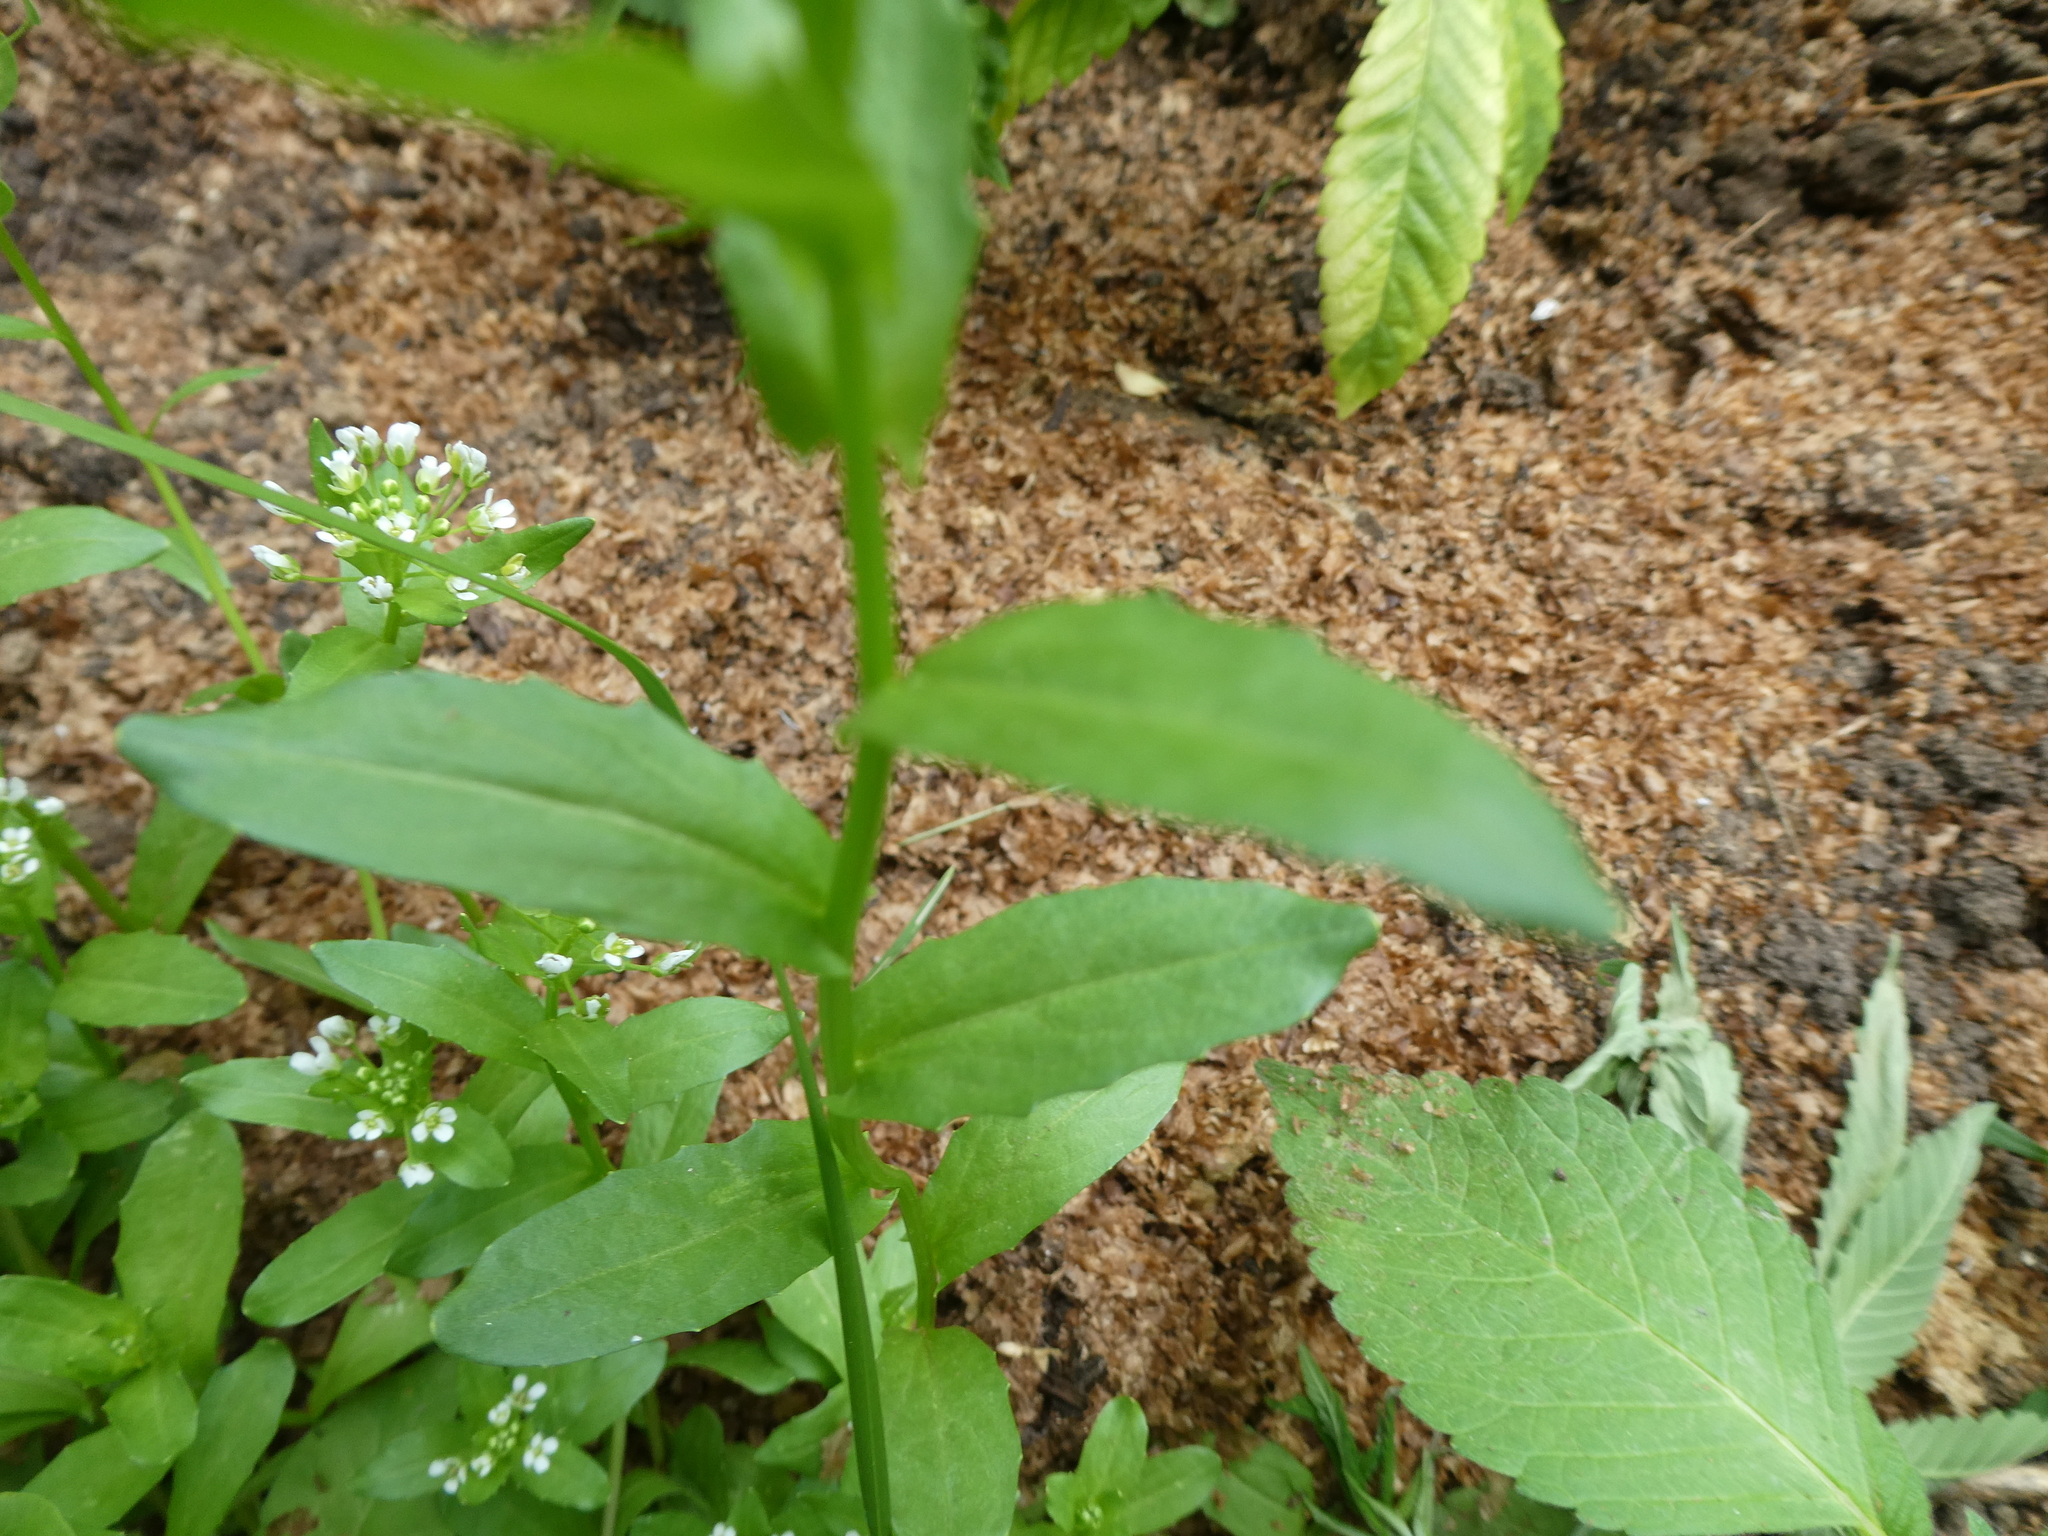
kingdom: Plantae
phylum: Tracheophyta
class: Magnoliopsida
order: Brassicales
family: Brassicaceae
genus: Thlaspi
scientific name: Thlaspi arvense
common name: Field pennycress
